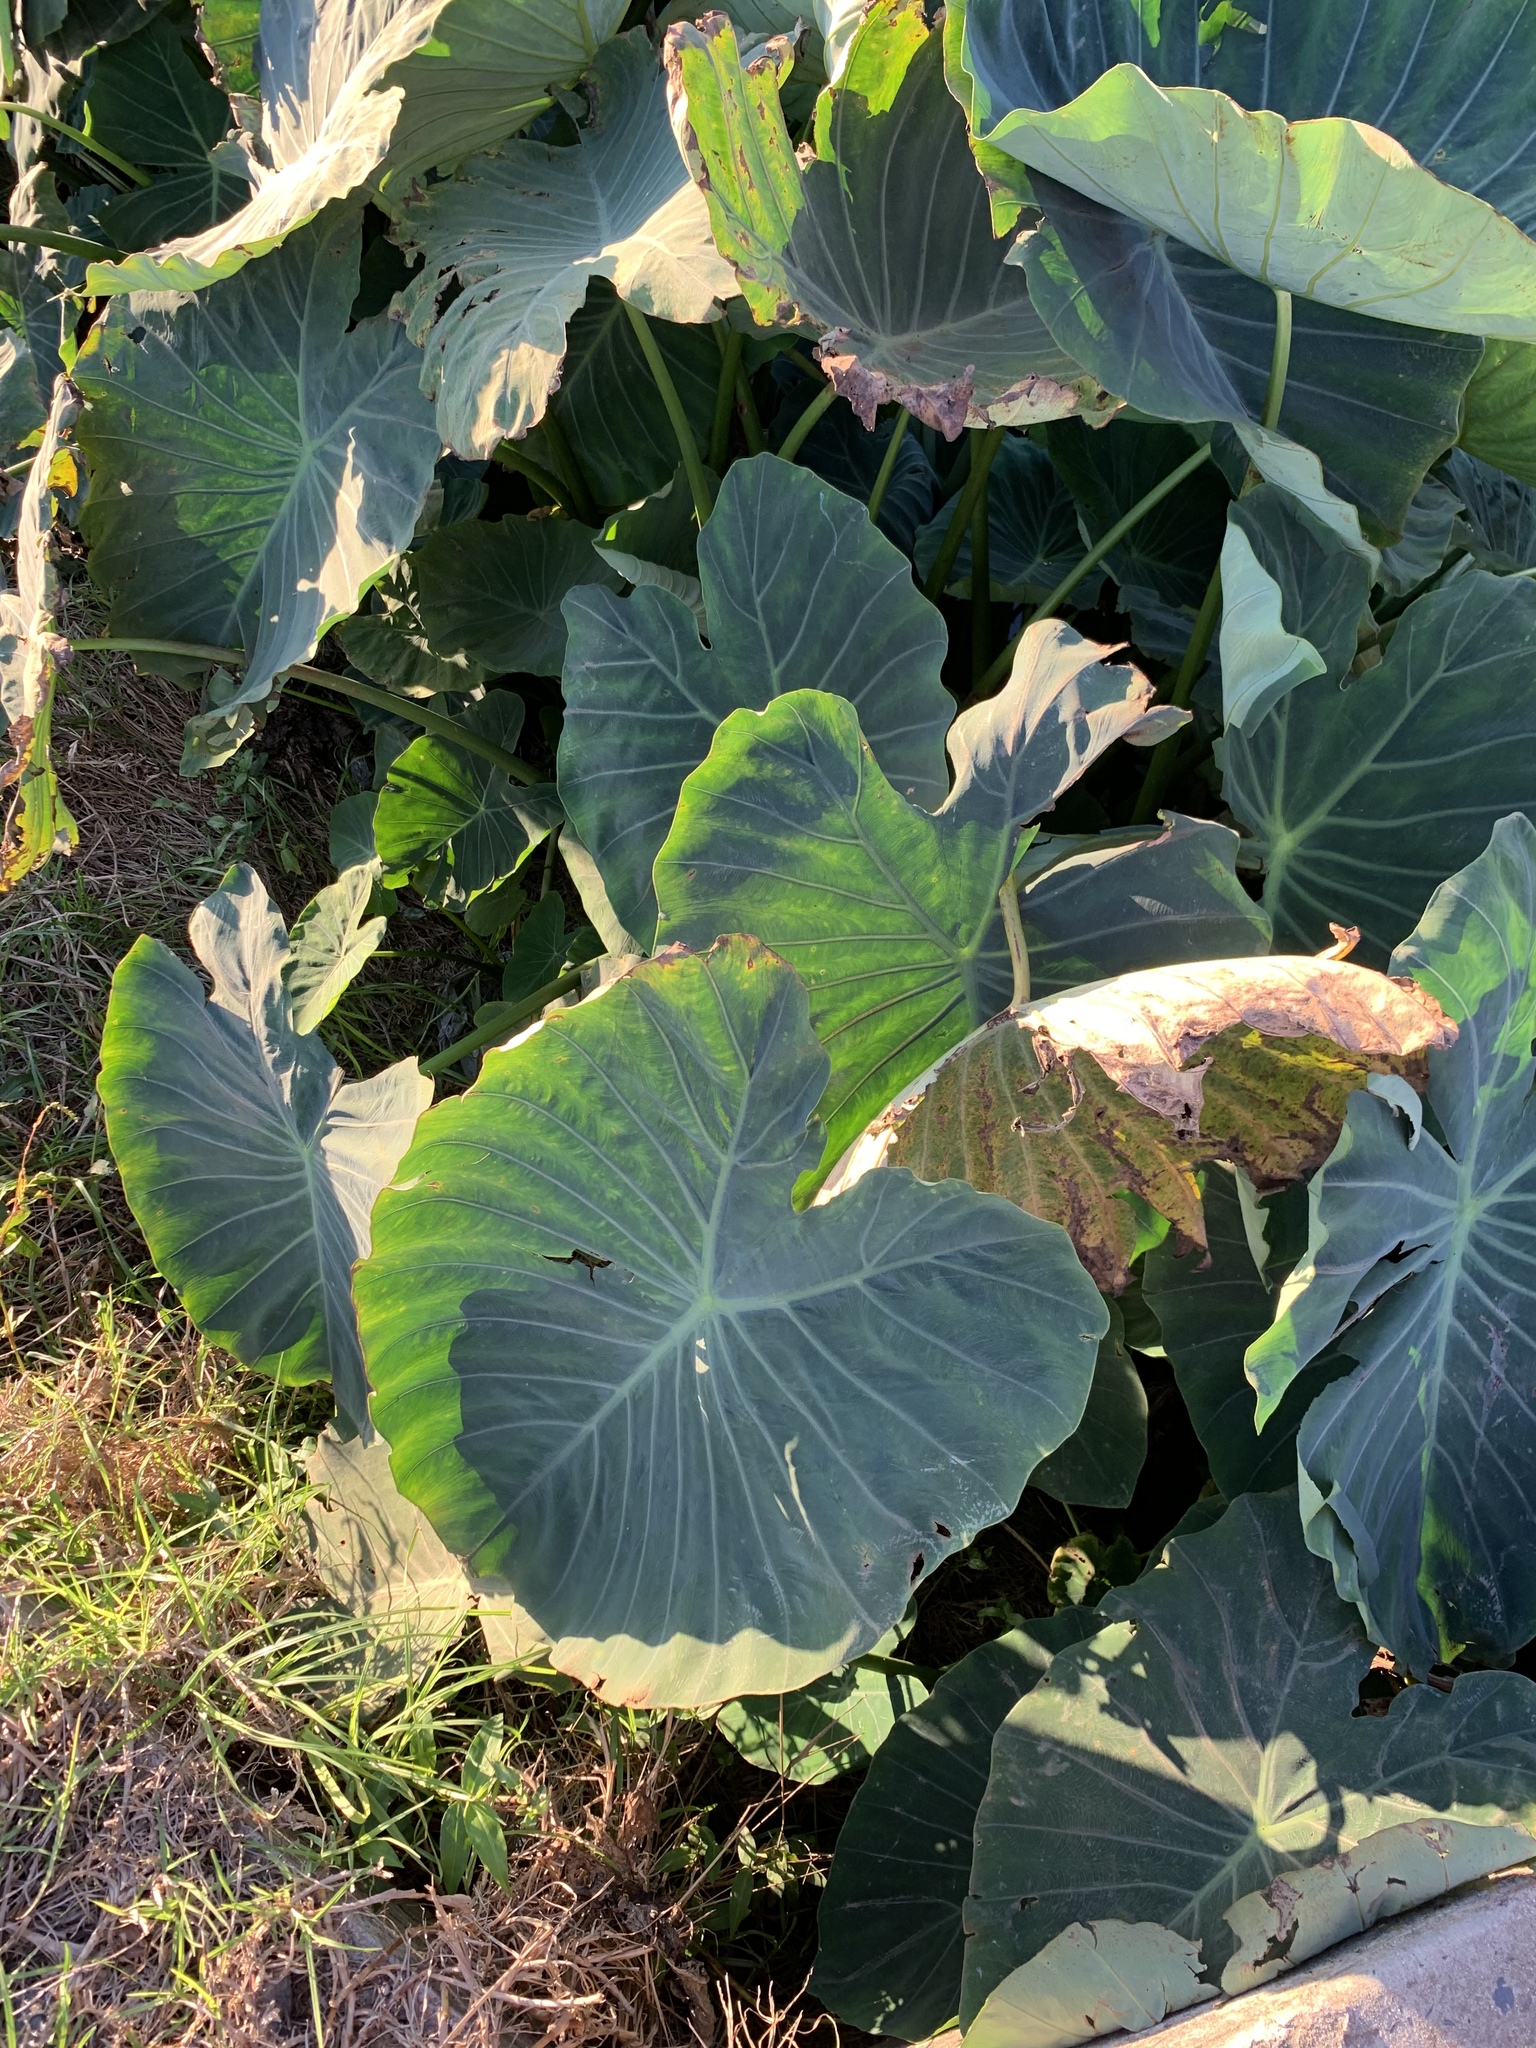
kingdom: Plantae
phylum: Tracheophyta
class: Liliopsida
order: Alismatales
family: Araceae
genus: Colocasia
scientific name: Colocasia esculenta
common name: Taro
